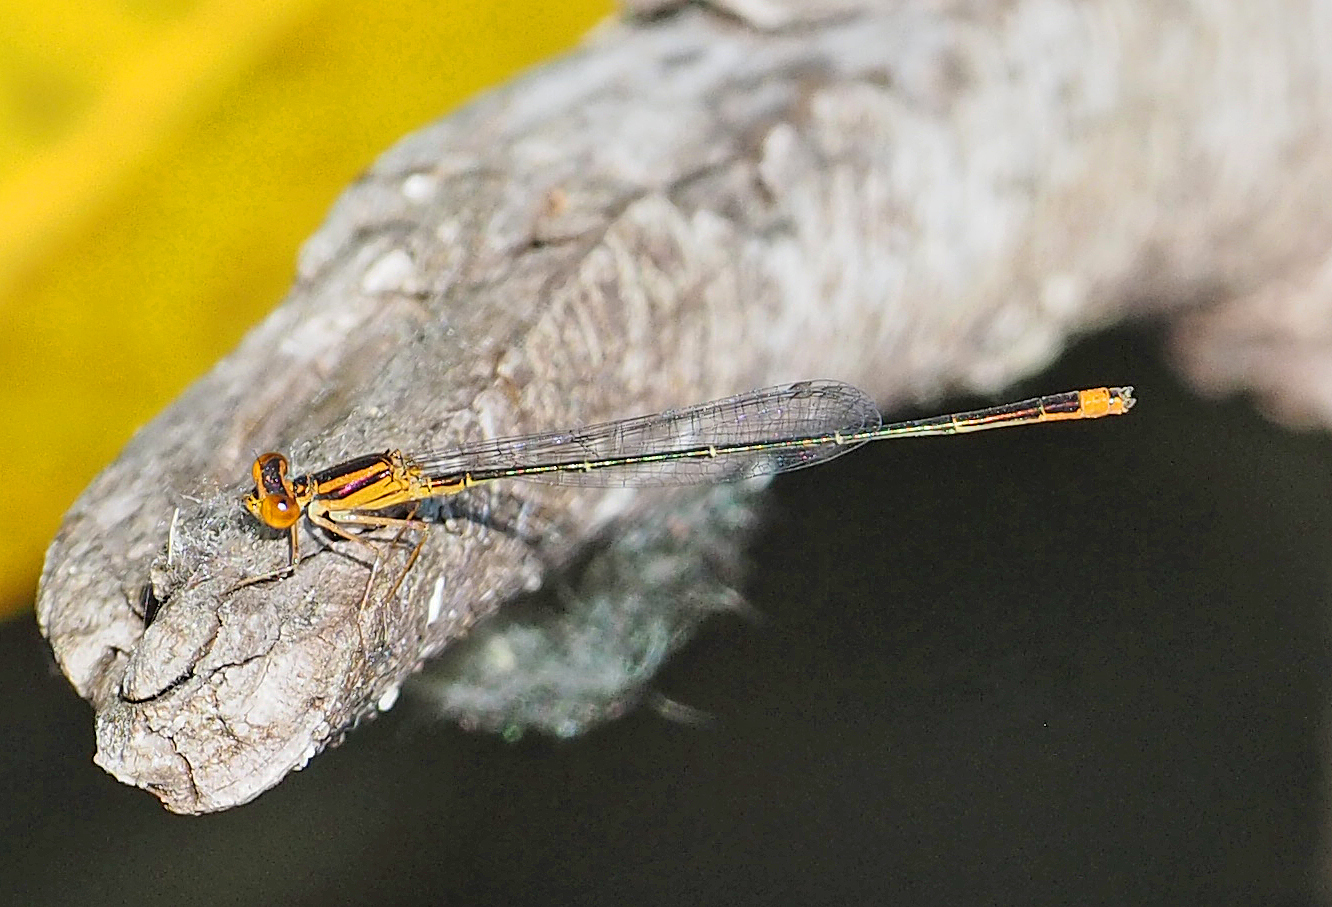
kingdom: Animalia
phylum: Arthropoda
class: Insecta
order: Odonata
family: Coenagrionidae
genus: Enallagma
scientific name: Enallagma pollutum
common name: Florida bluet
